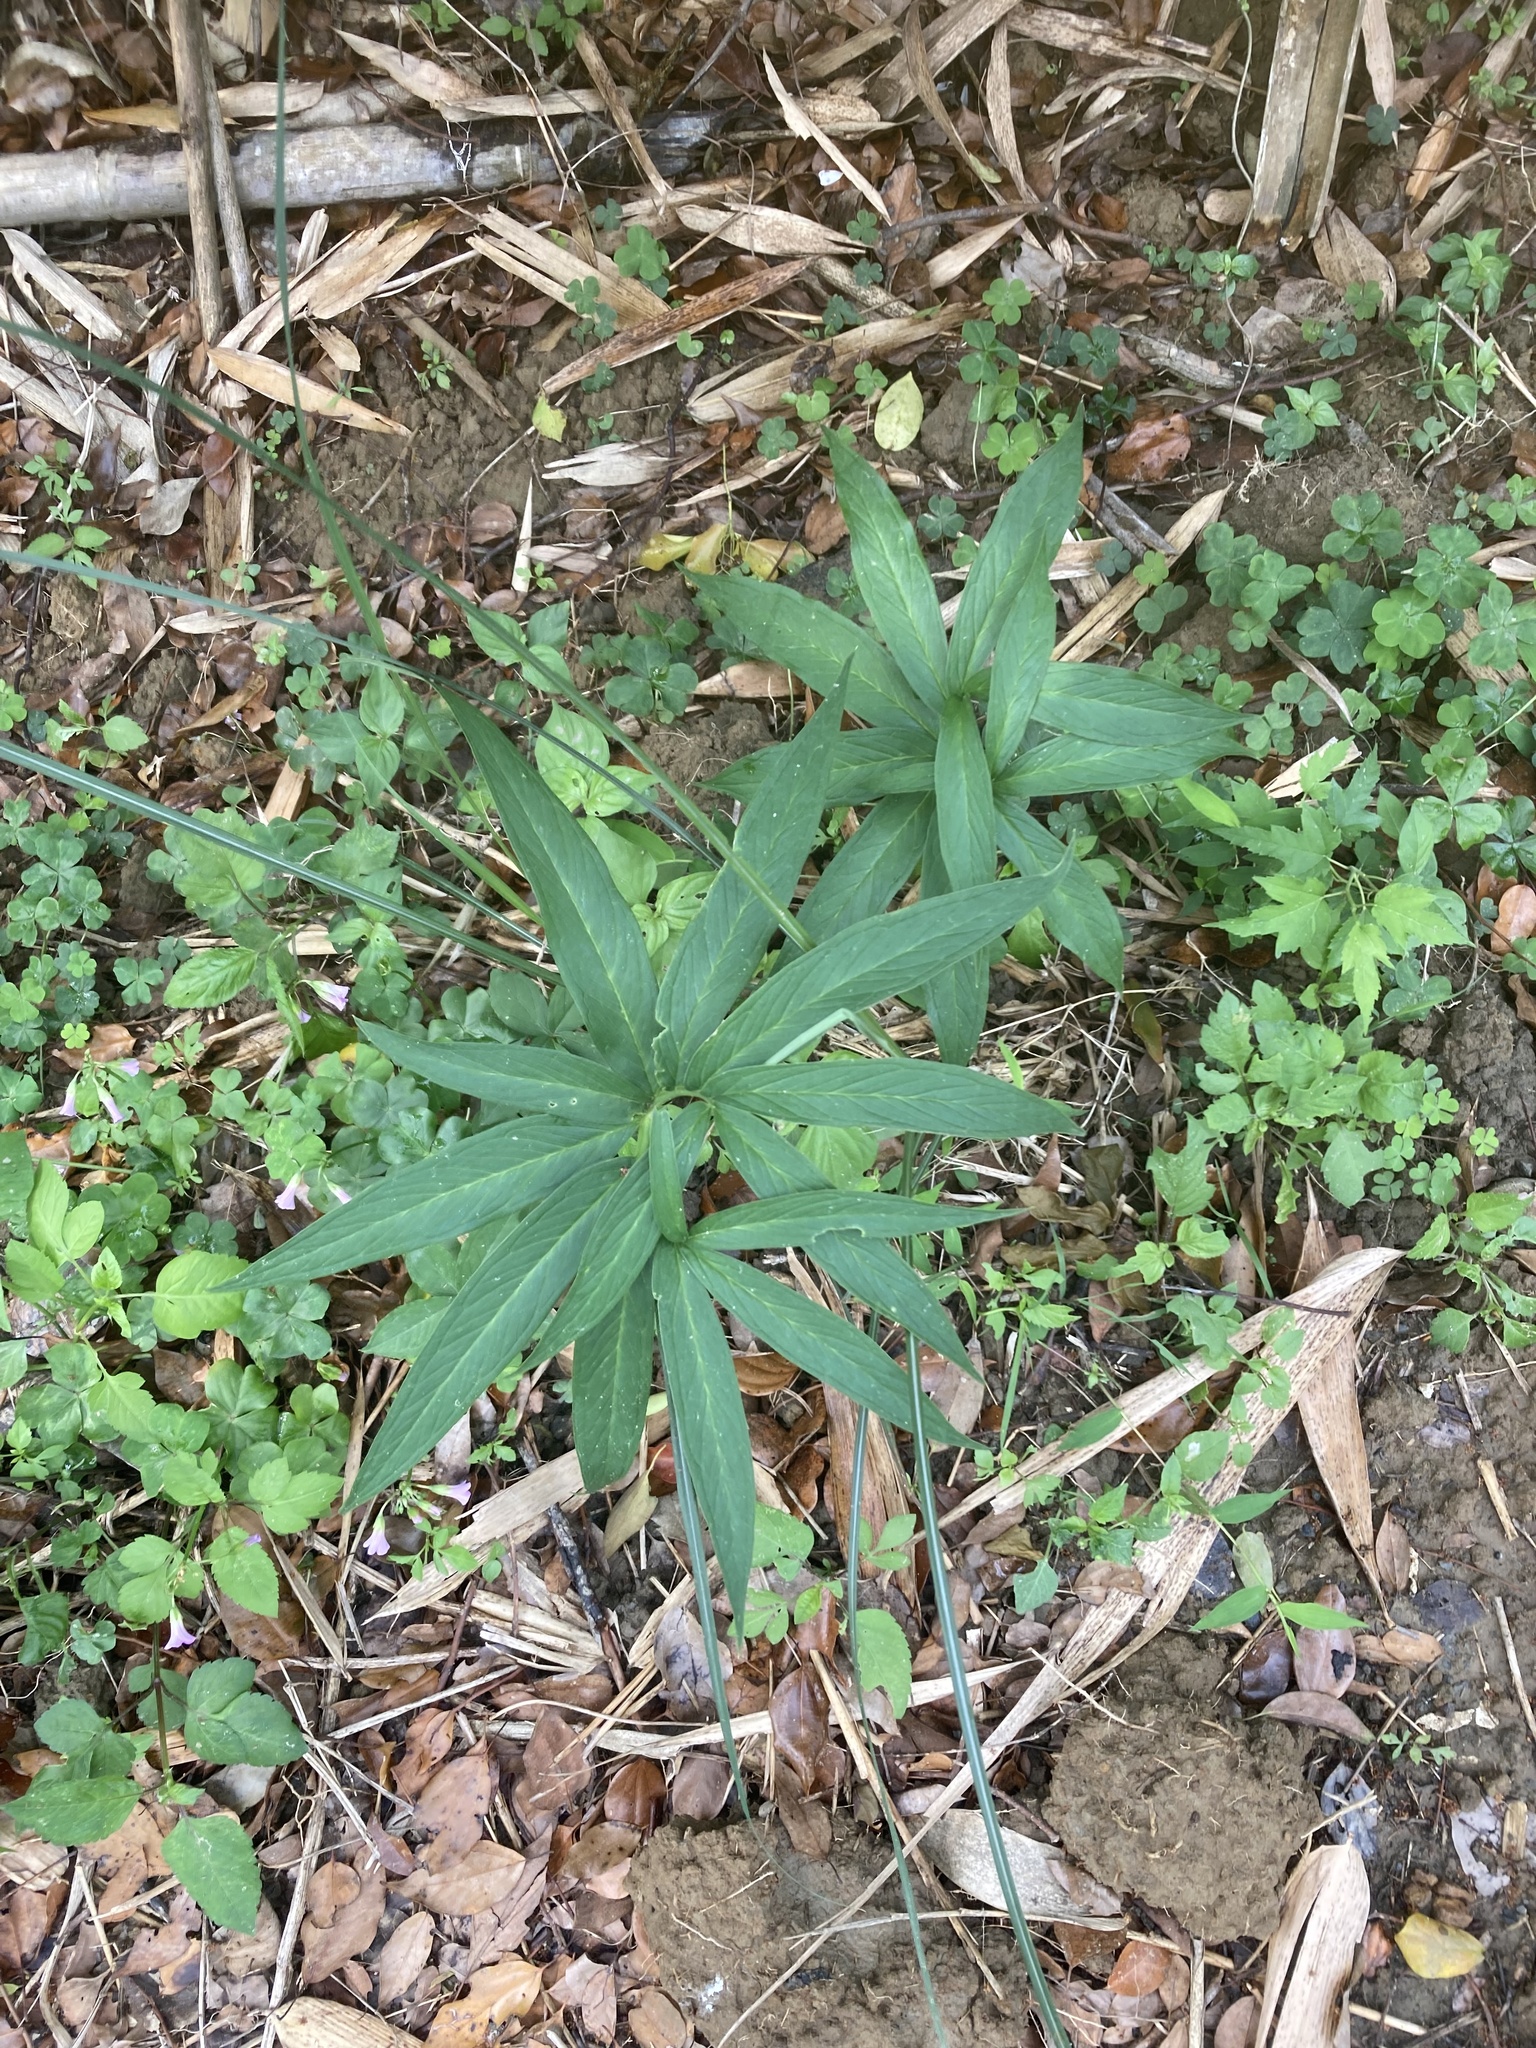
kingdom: Plantae
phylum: Tracheophyta
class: Liliopsida
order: Alismatales
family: Araceae
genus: Arisaema
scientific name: Arisaema heterophyllum
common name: Dancing crane cobra lily
